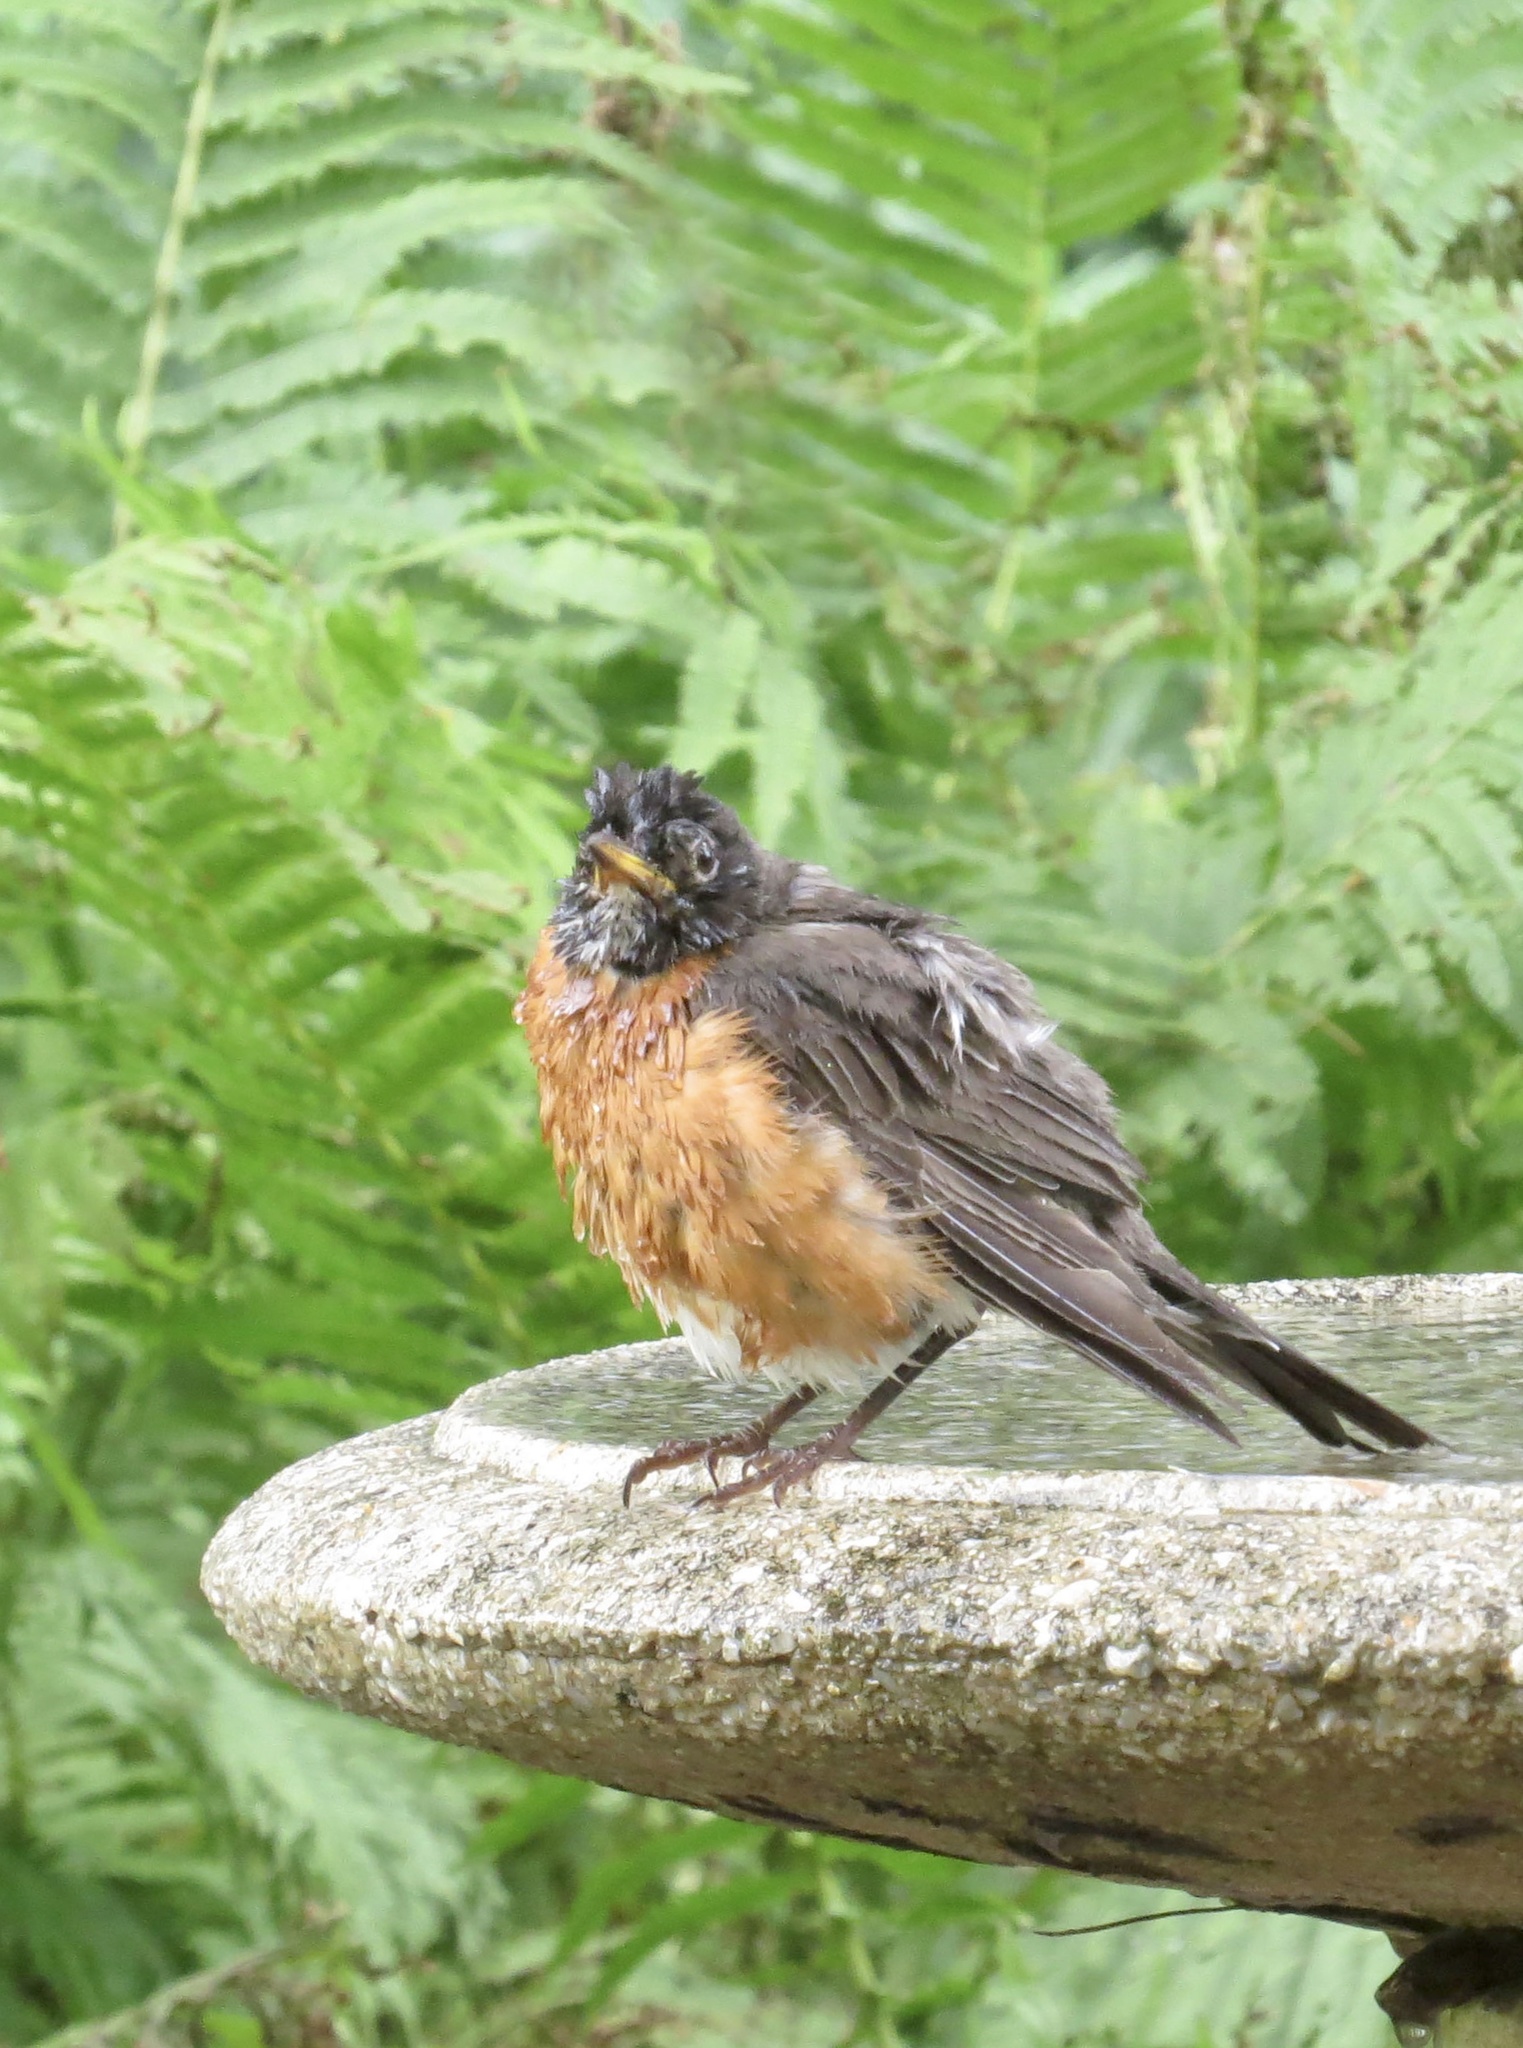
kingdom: Animalia
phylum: Chordata
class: Aves
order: Passeriformes
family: Turdidae
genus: Turdus
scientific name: Turdus migratorius
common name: American robin
